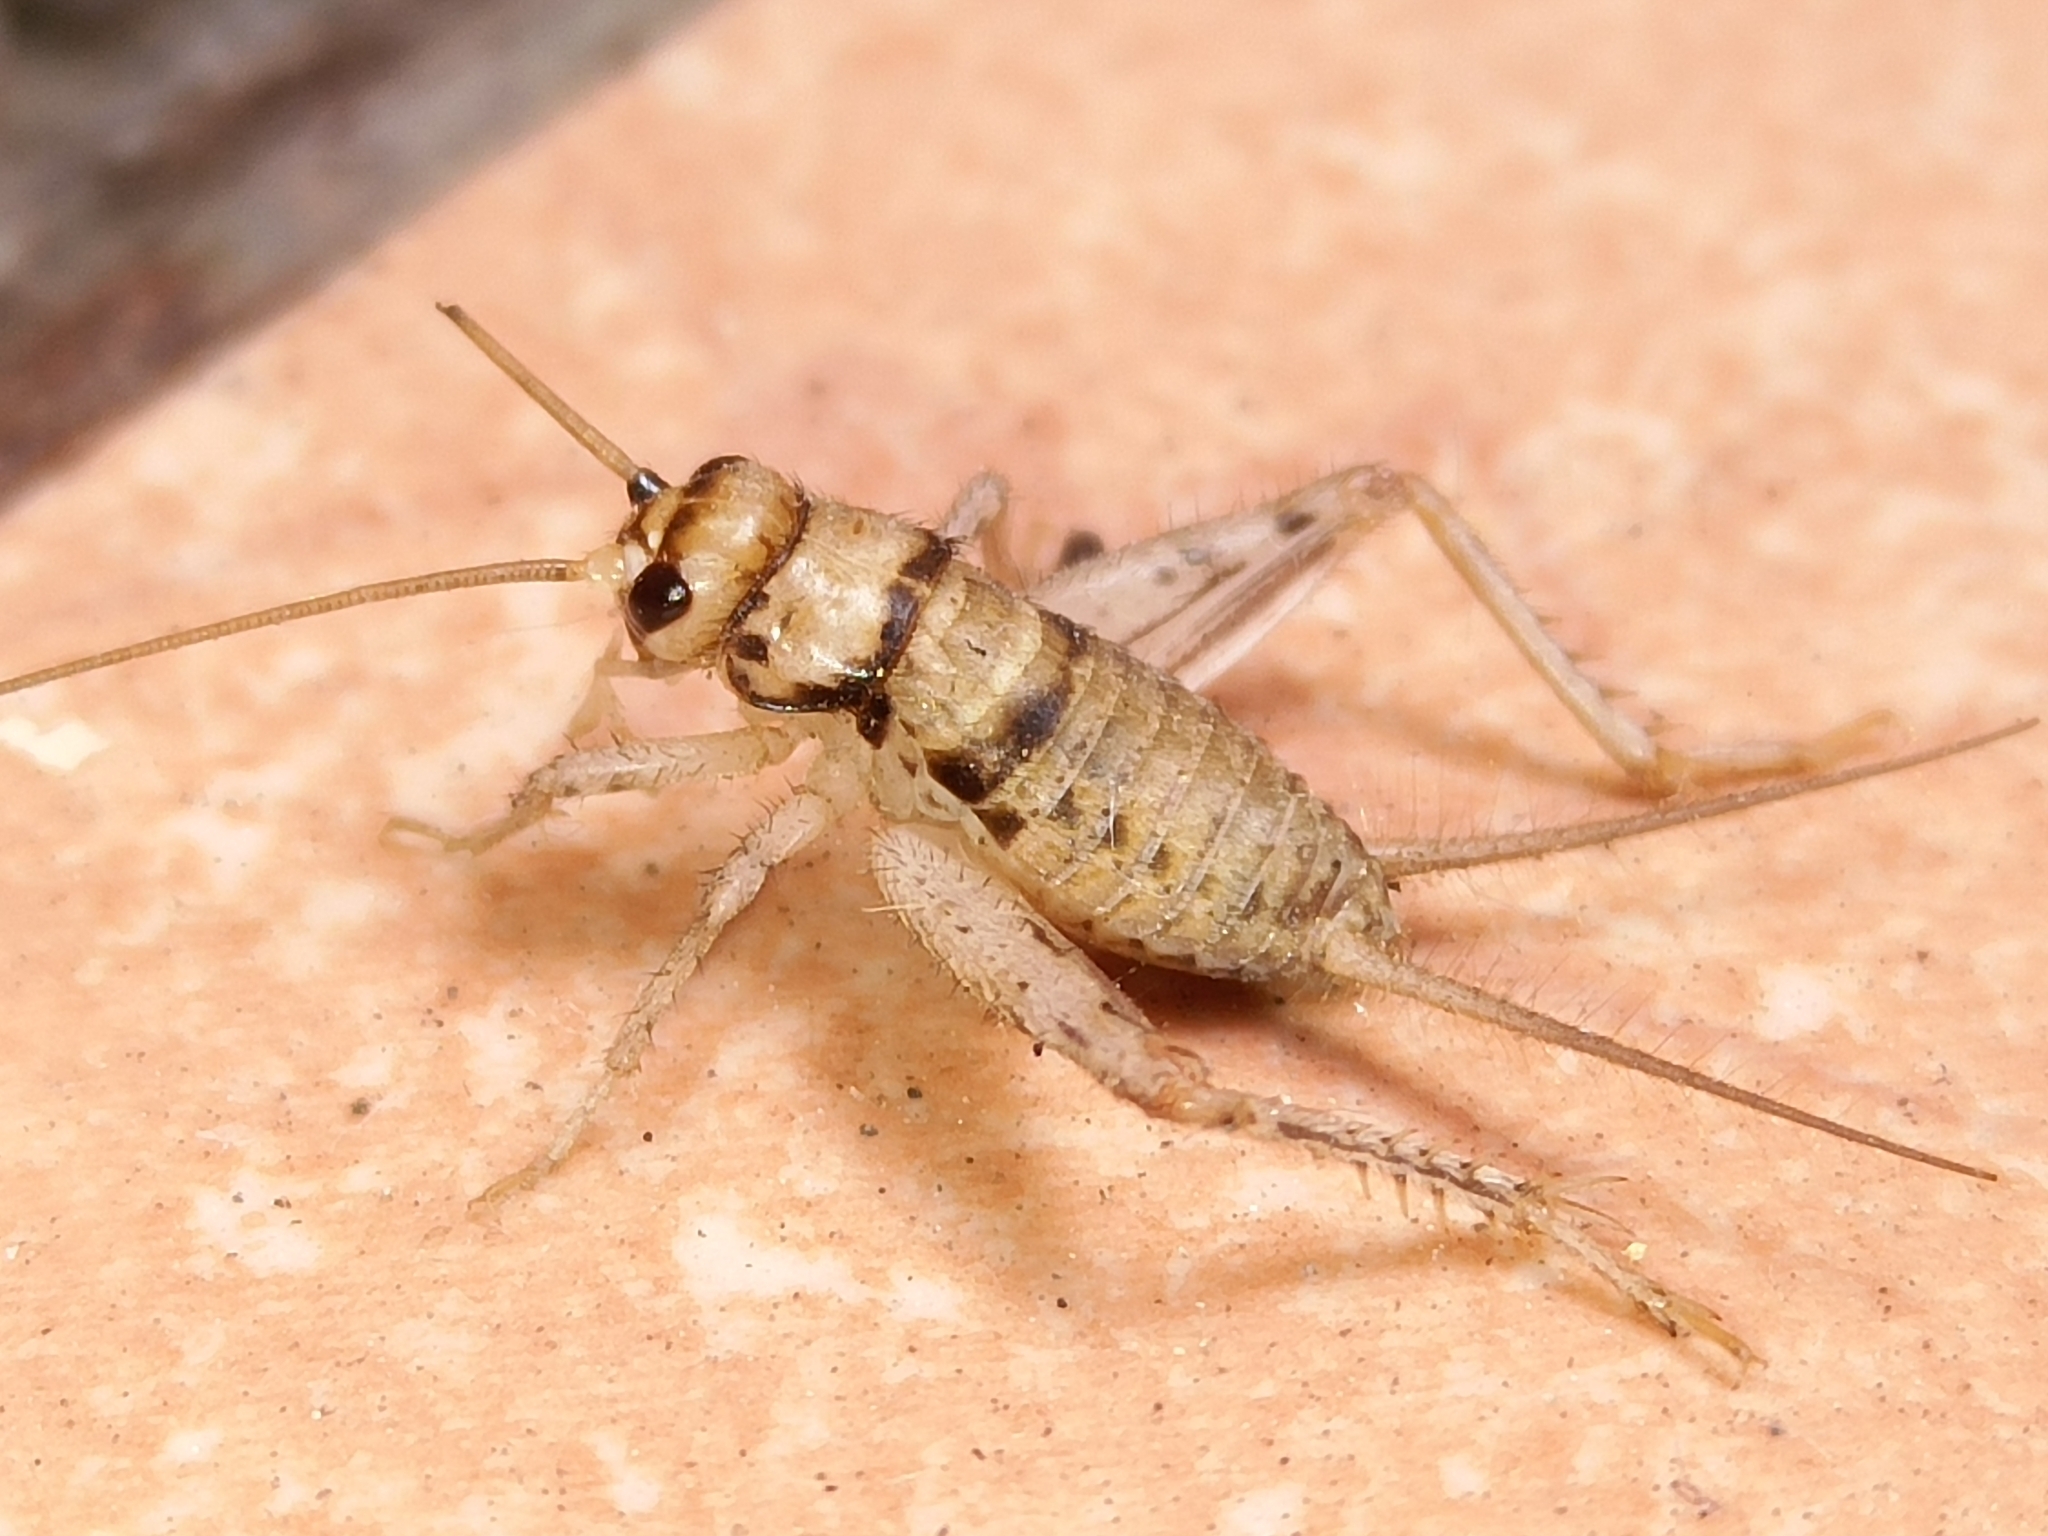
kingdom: Animalia
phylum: Arthropoda
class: Insecta
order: Orthoptera
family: Gryllidae
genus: Gryllodes
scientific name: Gryllodes sigillatus
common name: Tropical house cricket
